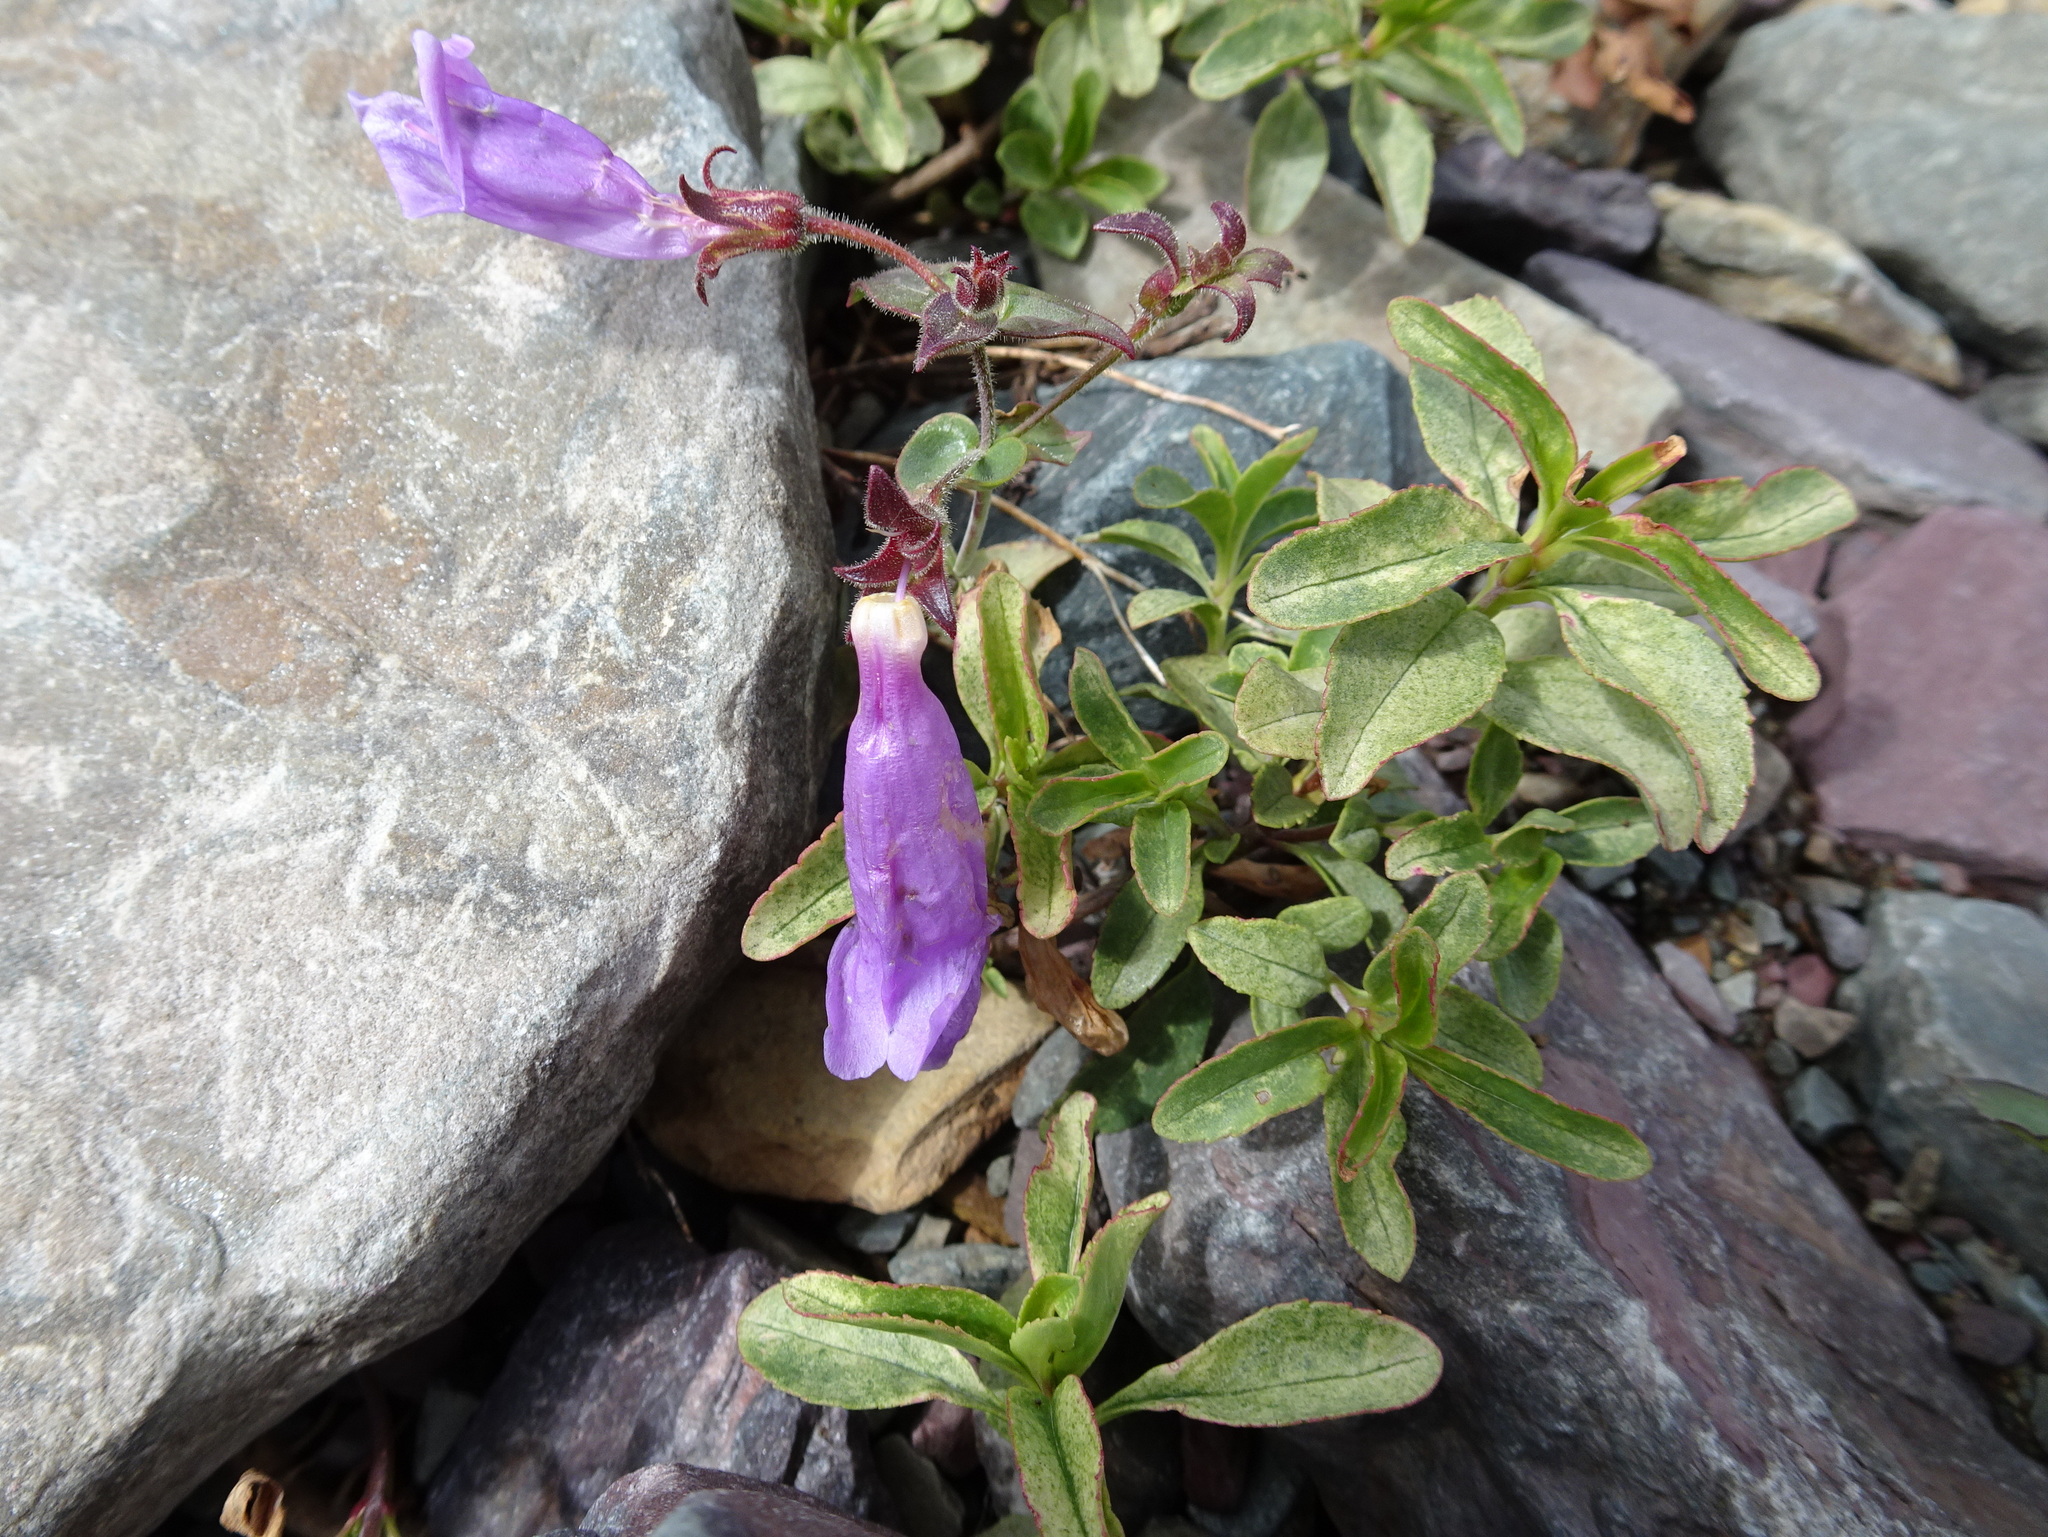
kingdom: Plantae
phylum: Tracheophyta
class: Magnoliopsida
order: Lamiales
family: Plantaginaceae
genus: Penstemon
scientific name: Penstemon ellipticus
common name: Alpine beardtongue
